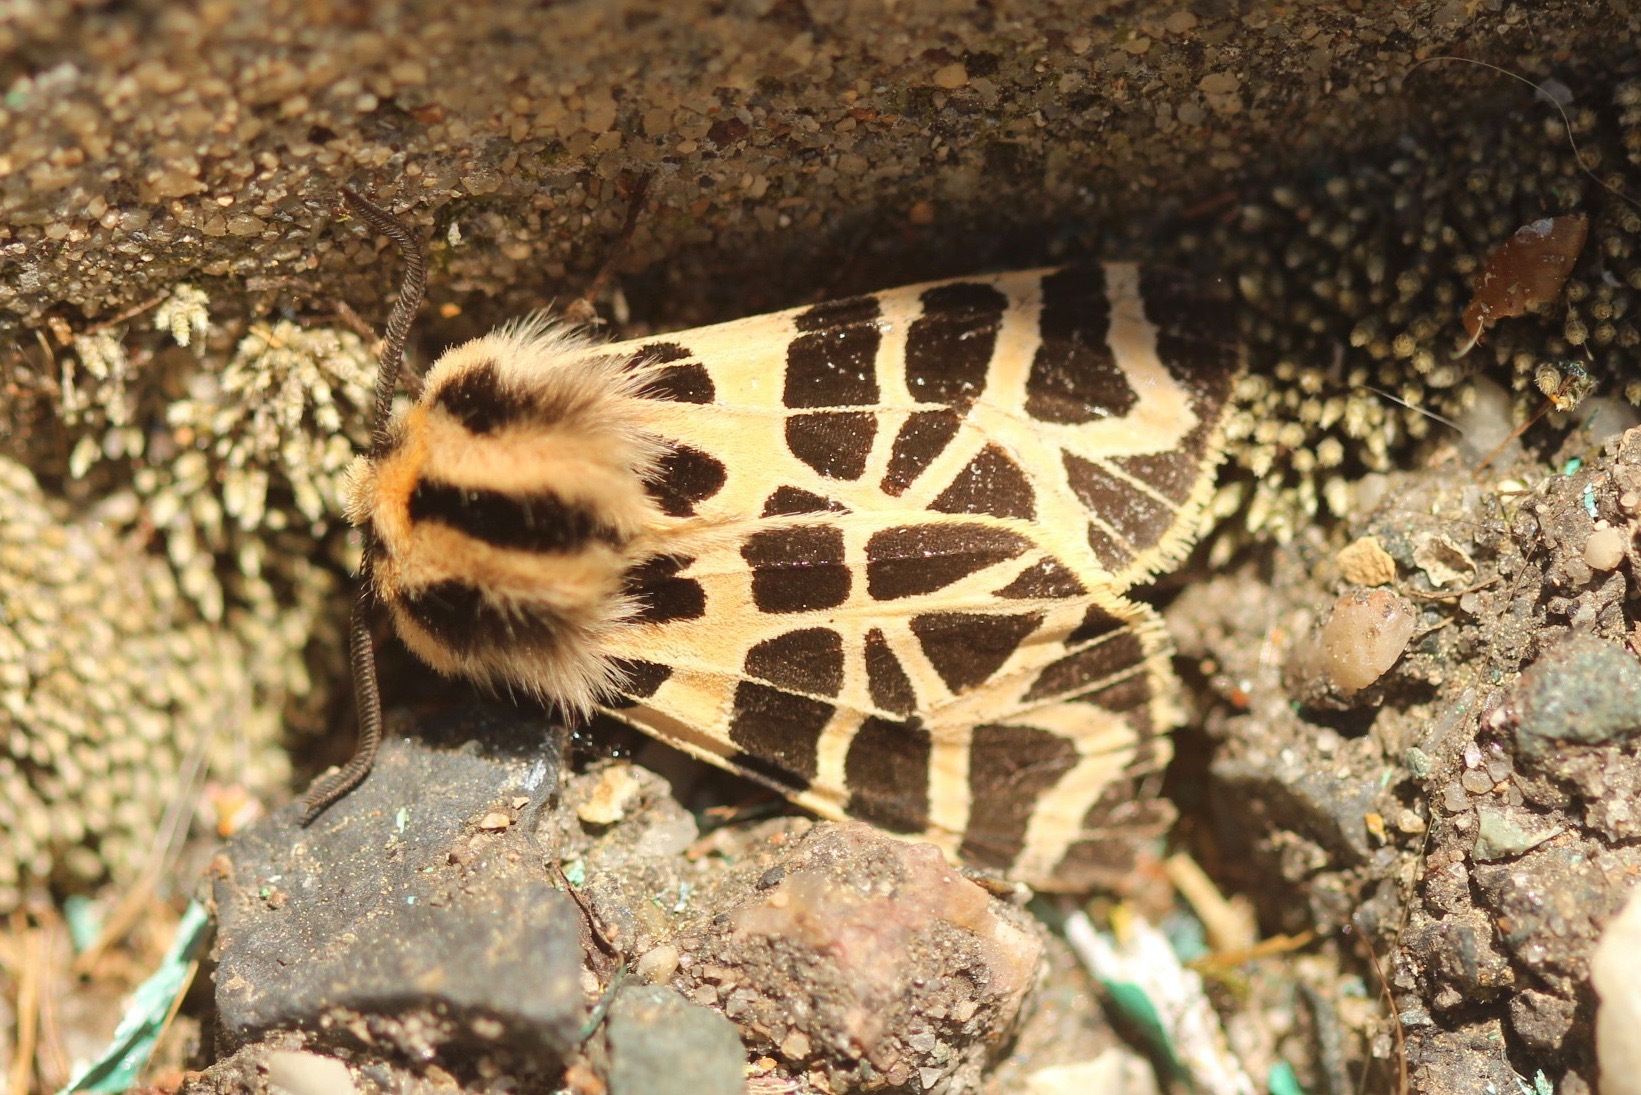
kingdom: Animalia
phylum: Arthropoda
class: Insecta
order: Lepidoptera
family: Erebidae
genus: Apantesis
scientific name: Apantesis
